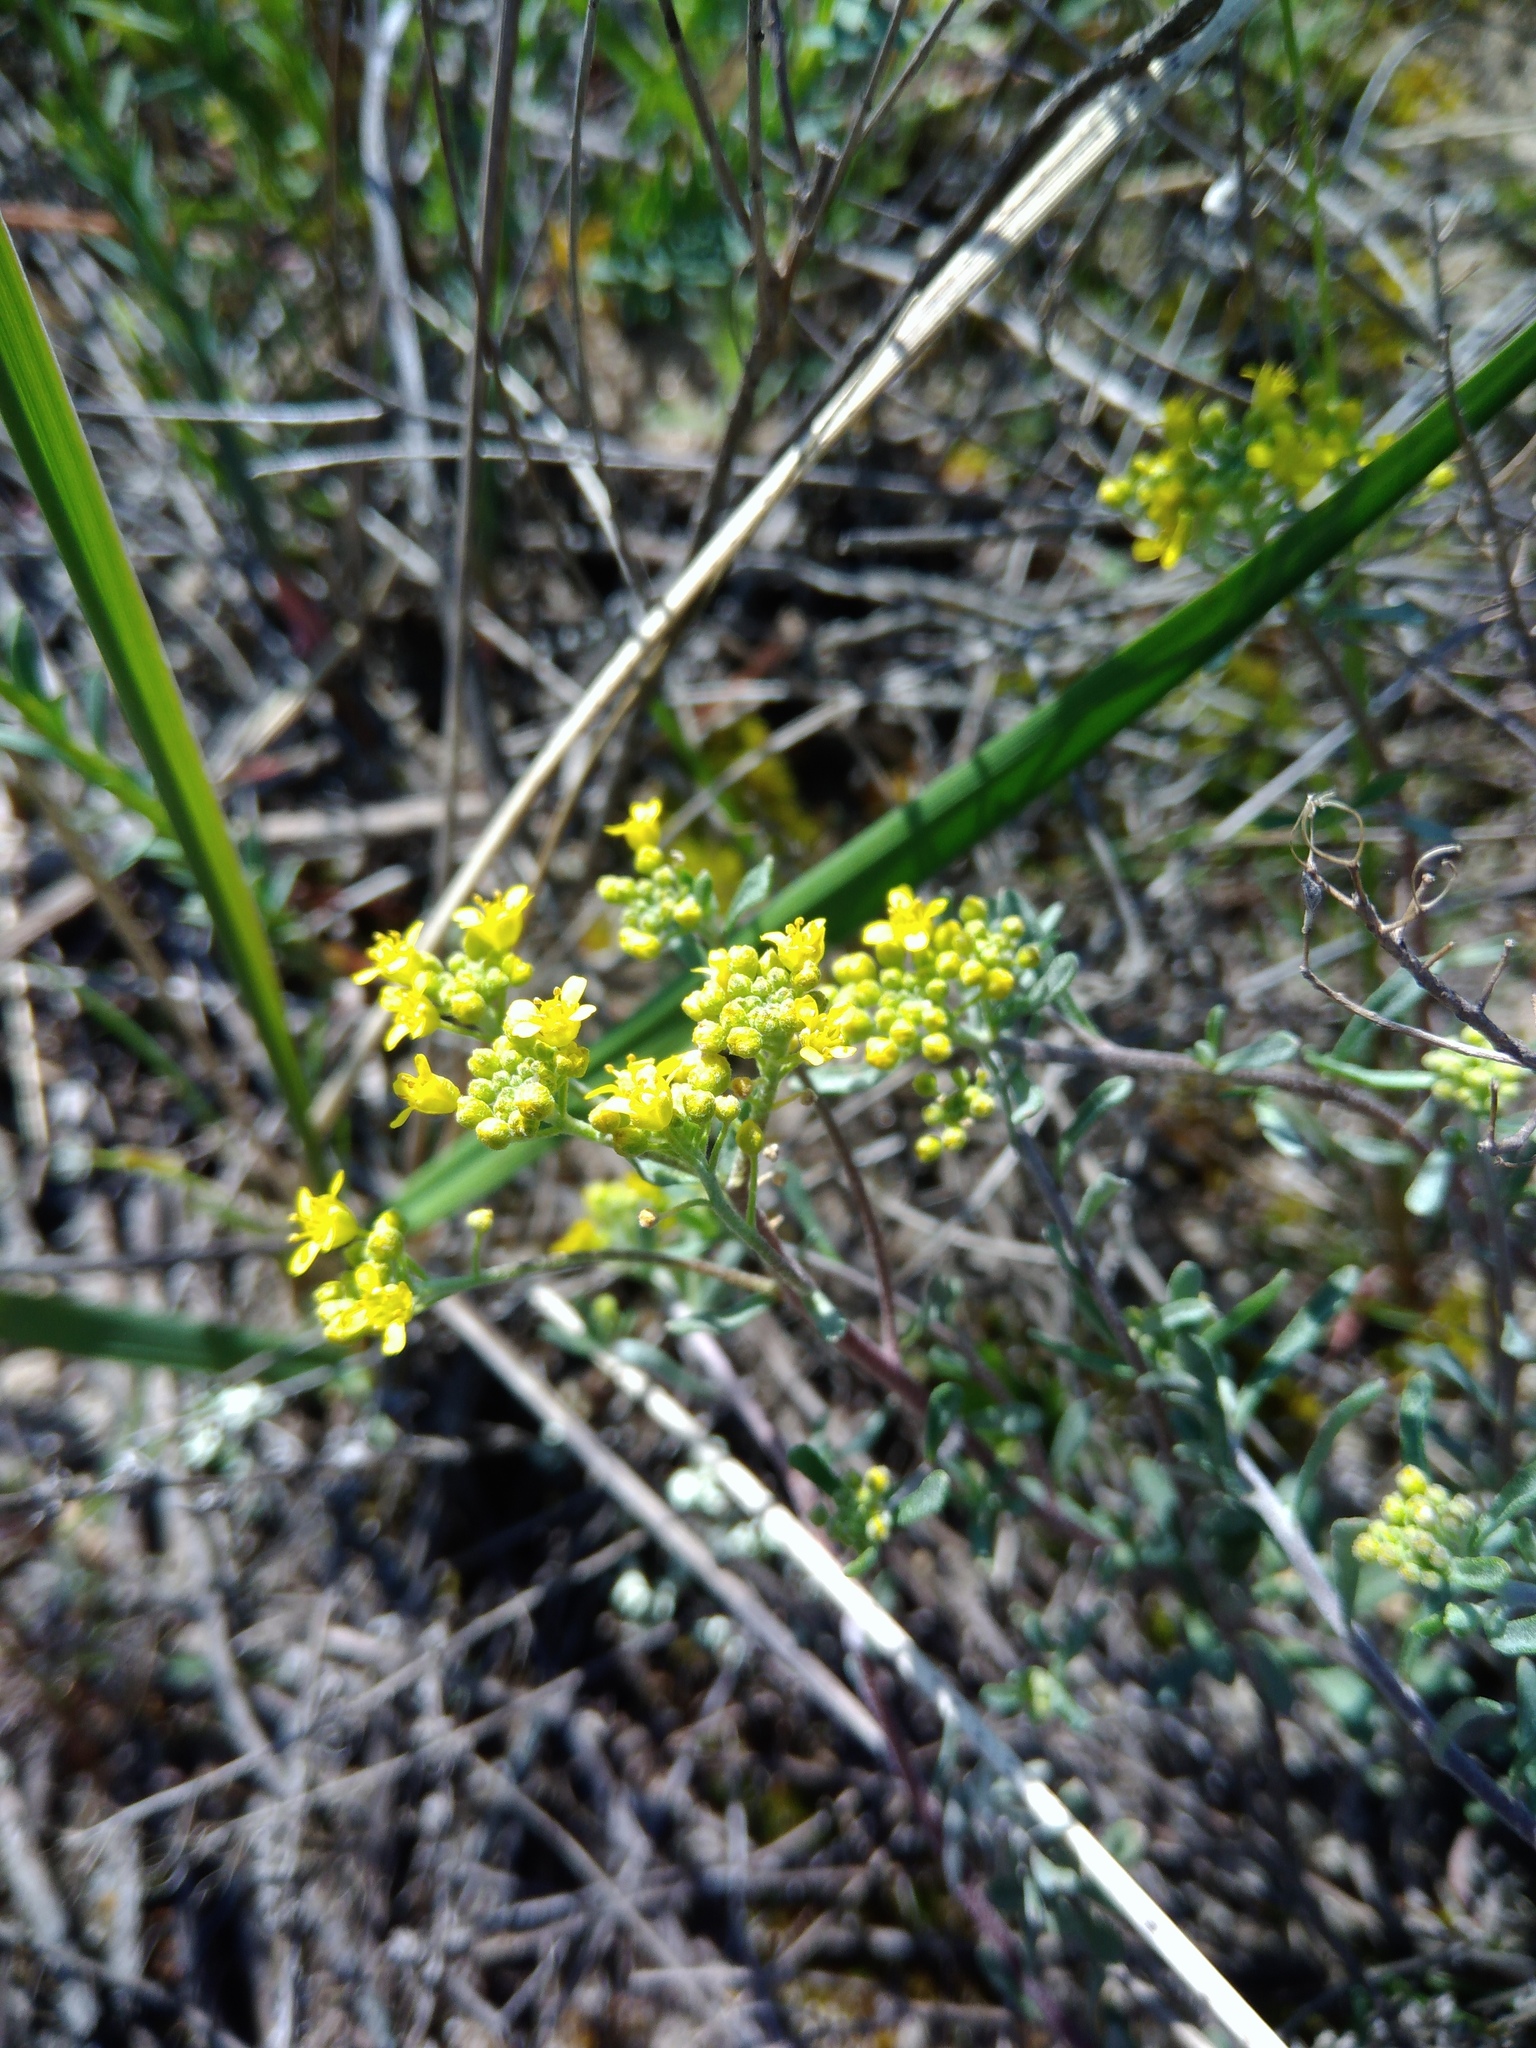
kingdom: Plantae
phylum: Tracheophyta
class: Magnoliopsida
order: Brassicales
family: Brassicaceae
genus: Odontarrhena
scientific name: Odontarrhena tortuosa
